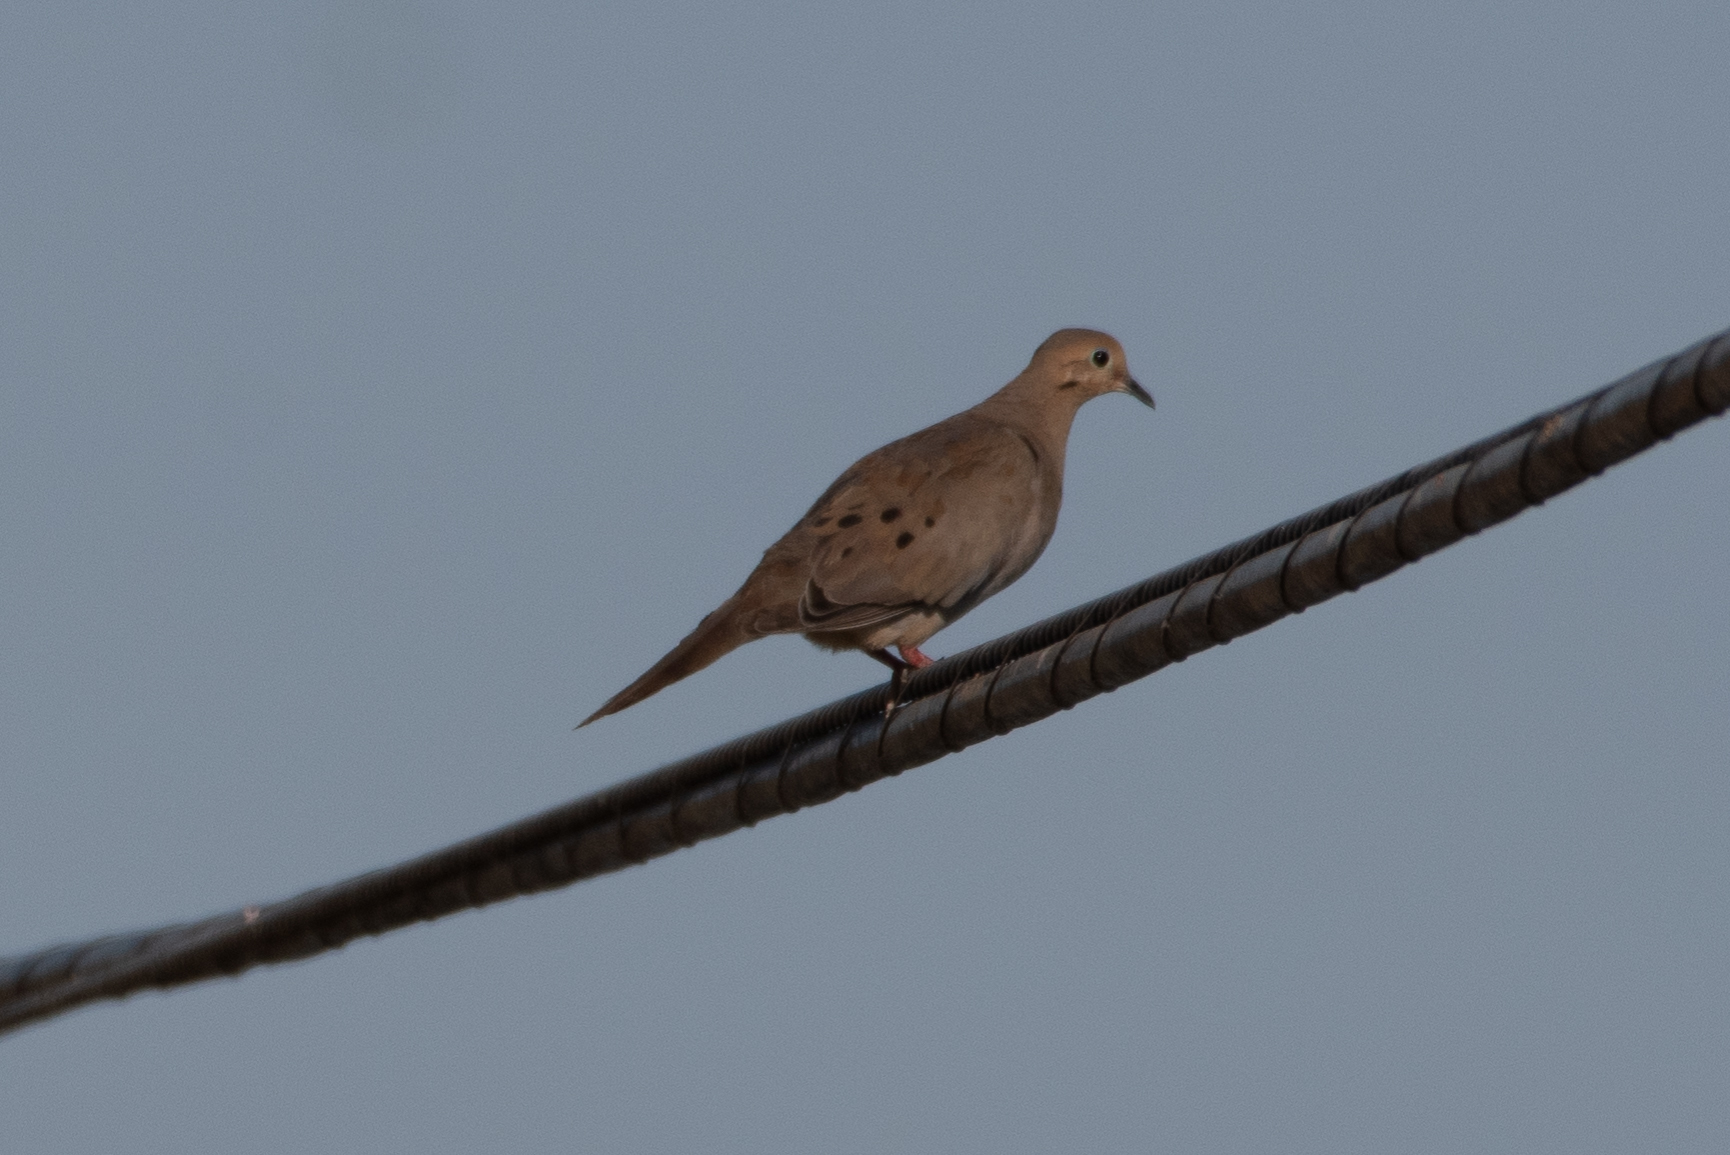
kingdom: Animalia
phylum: Chordata
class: Aves
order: Columbiformes
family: Columbidae
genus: Zenaida
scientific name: Zenaida macroura
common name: Mourning dove
